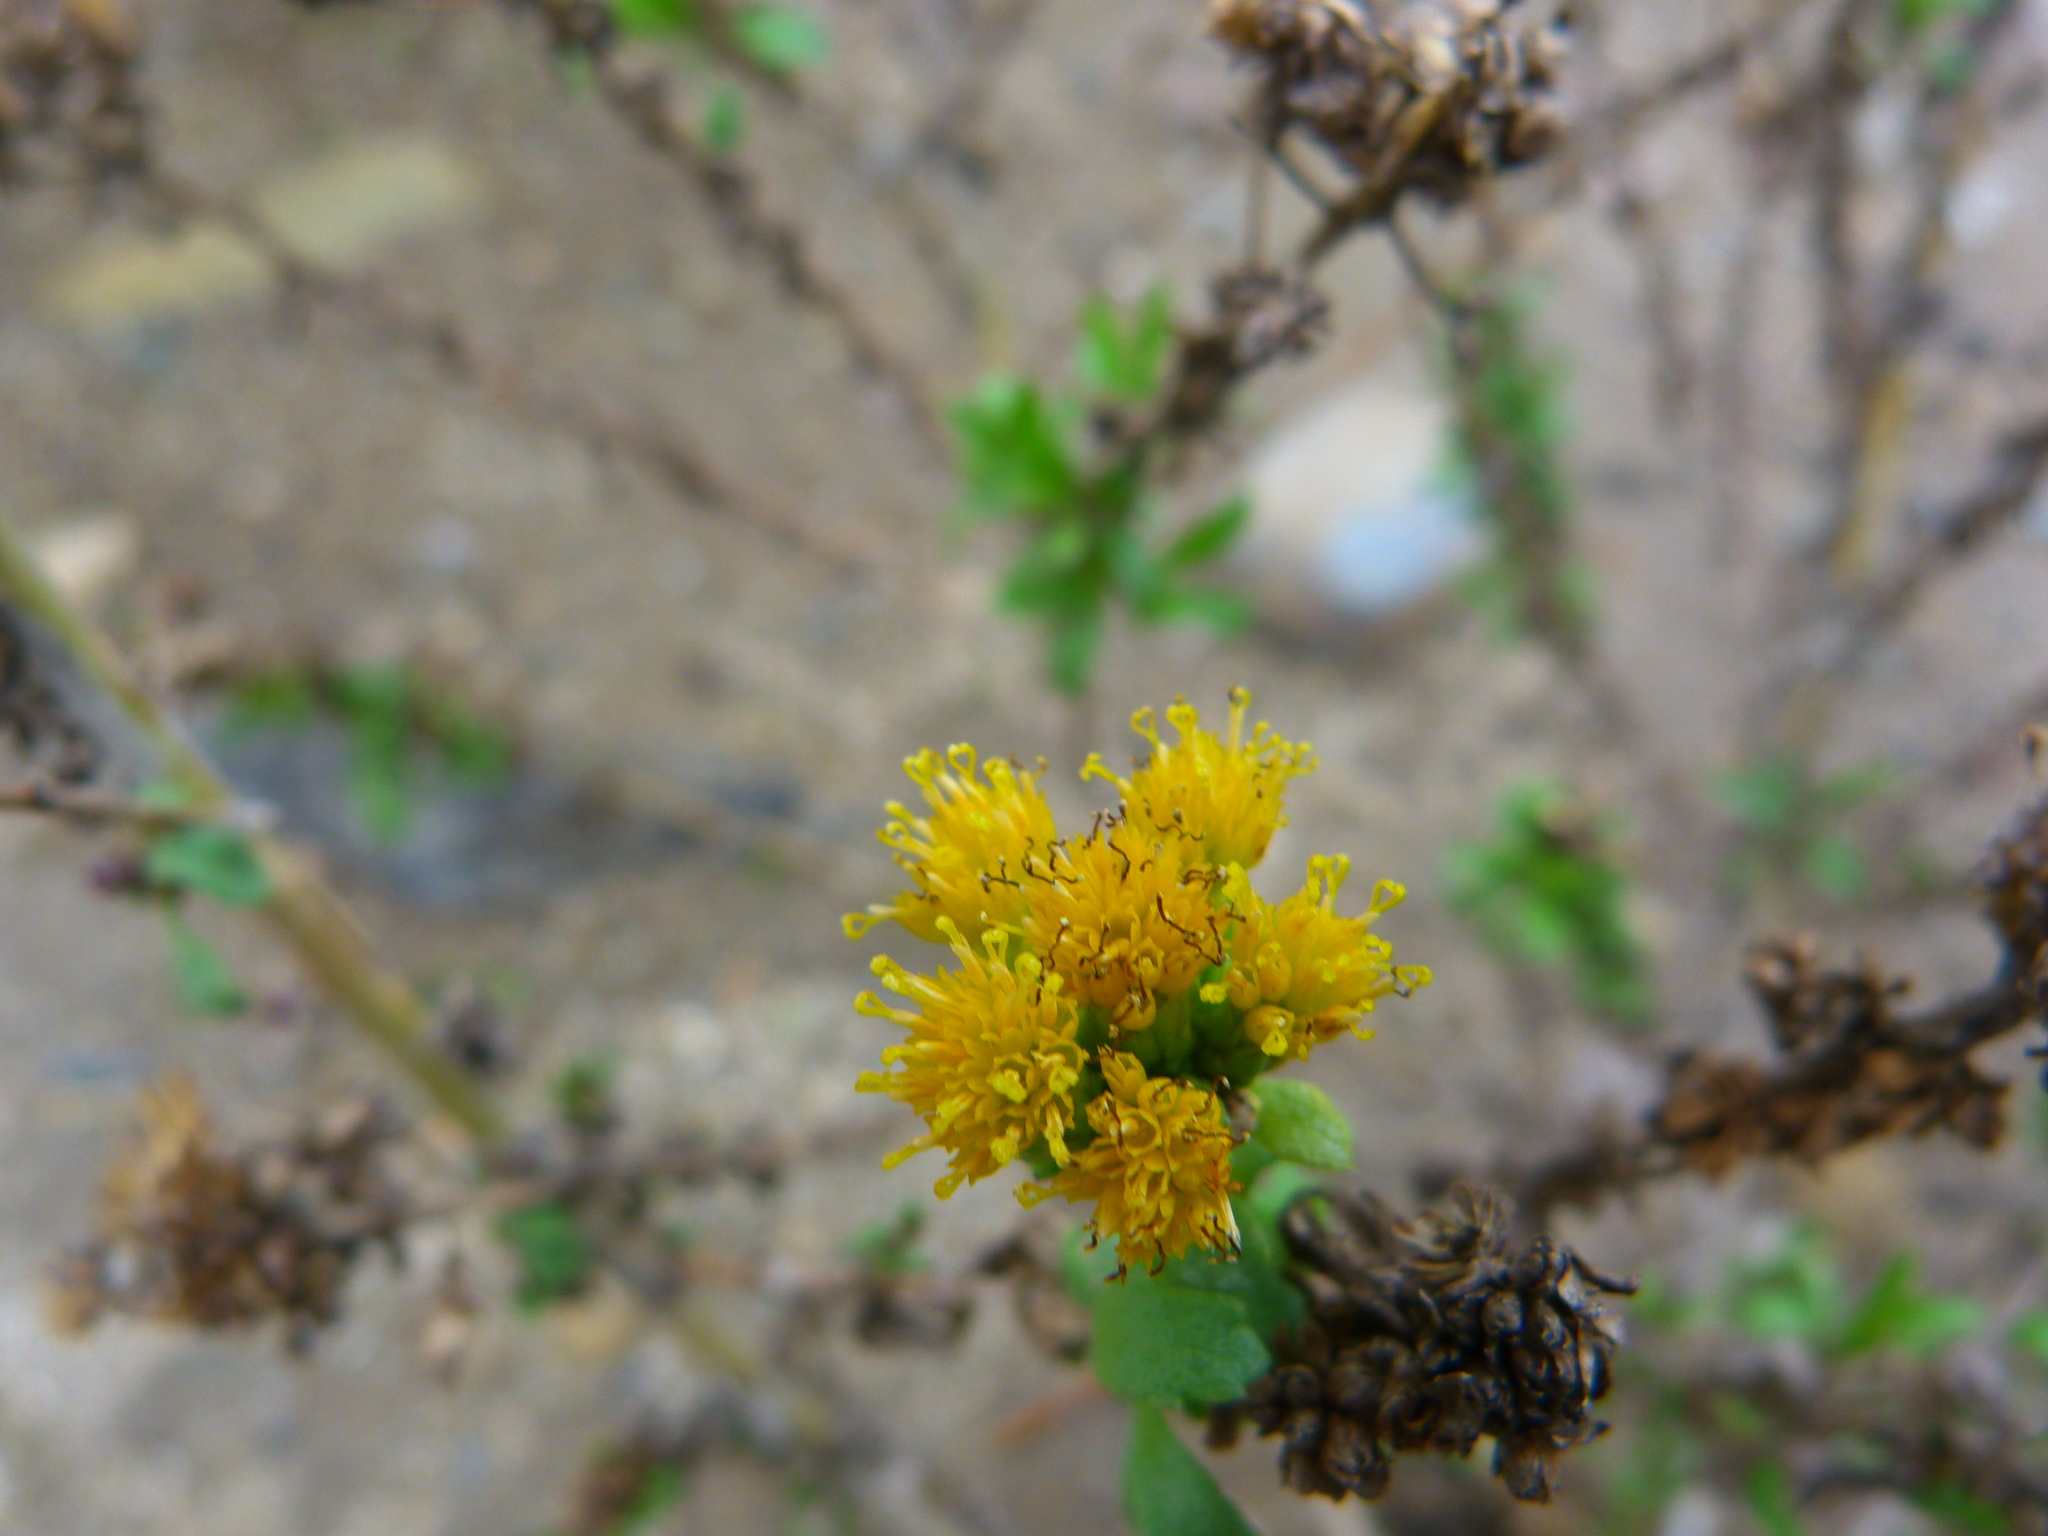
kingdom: Plantae
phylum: Tracheophyta
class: Magnoliopsida
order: Asterales
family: Asteraceae
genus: Isocoma
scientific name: Isocoma menziesii
